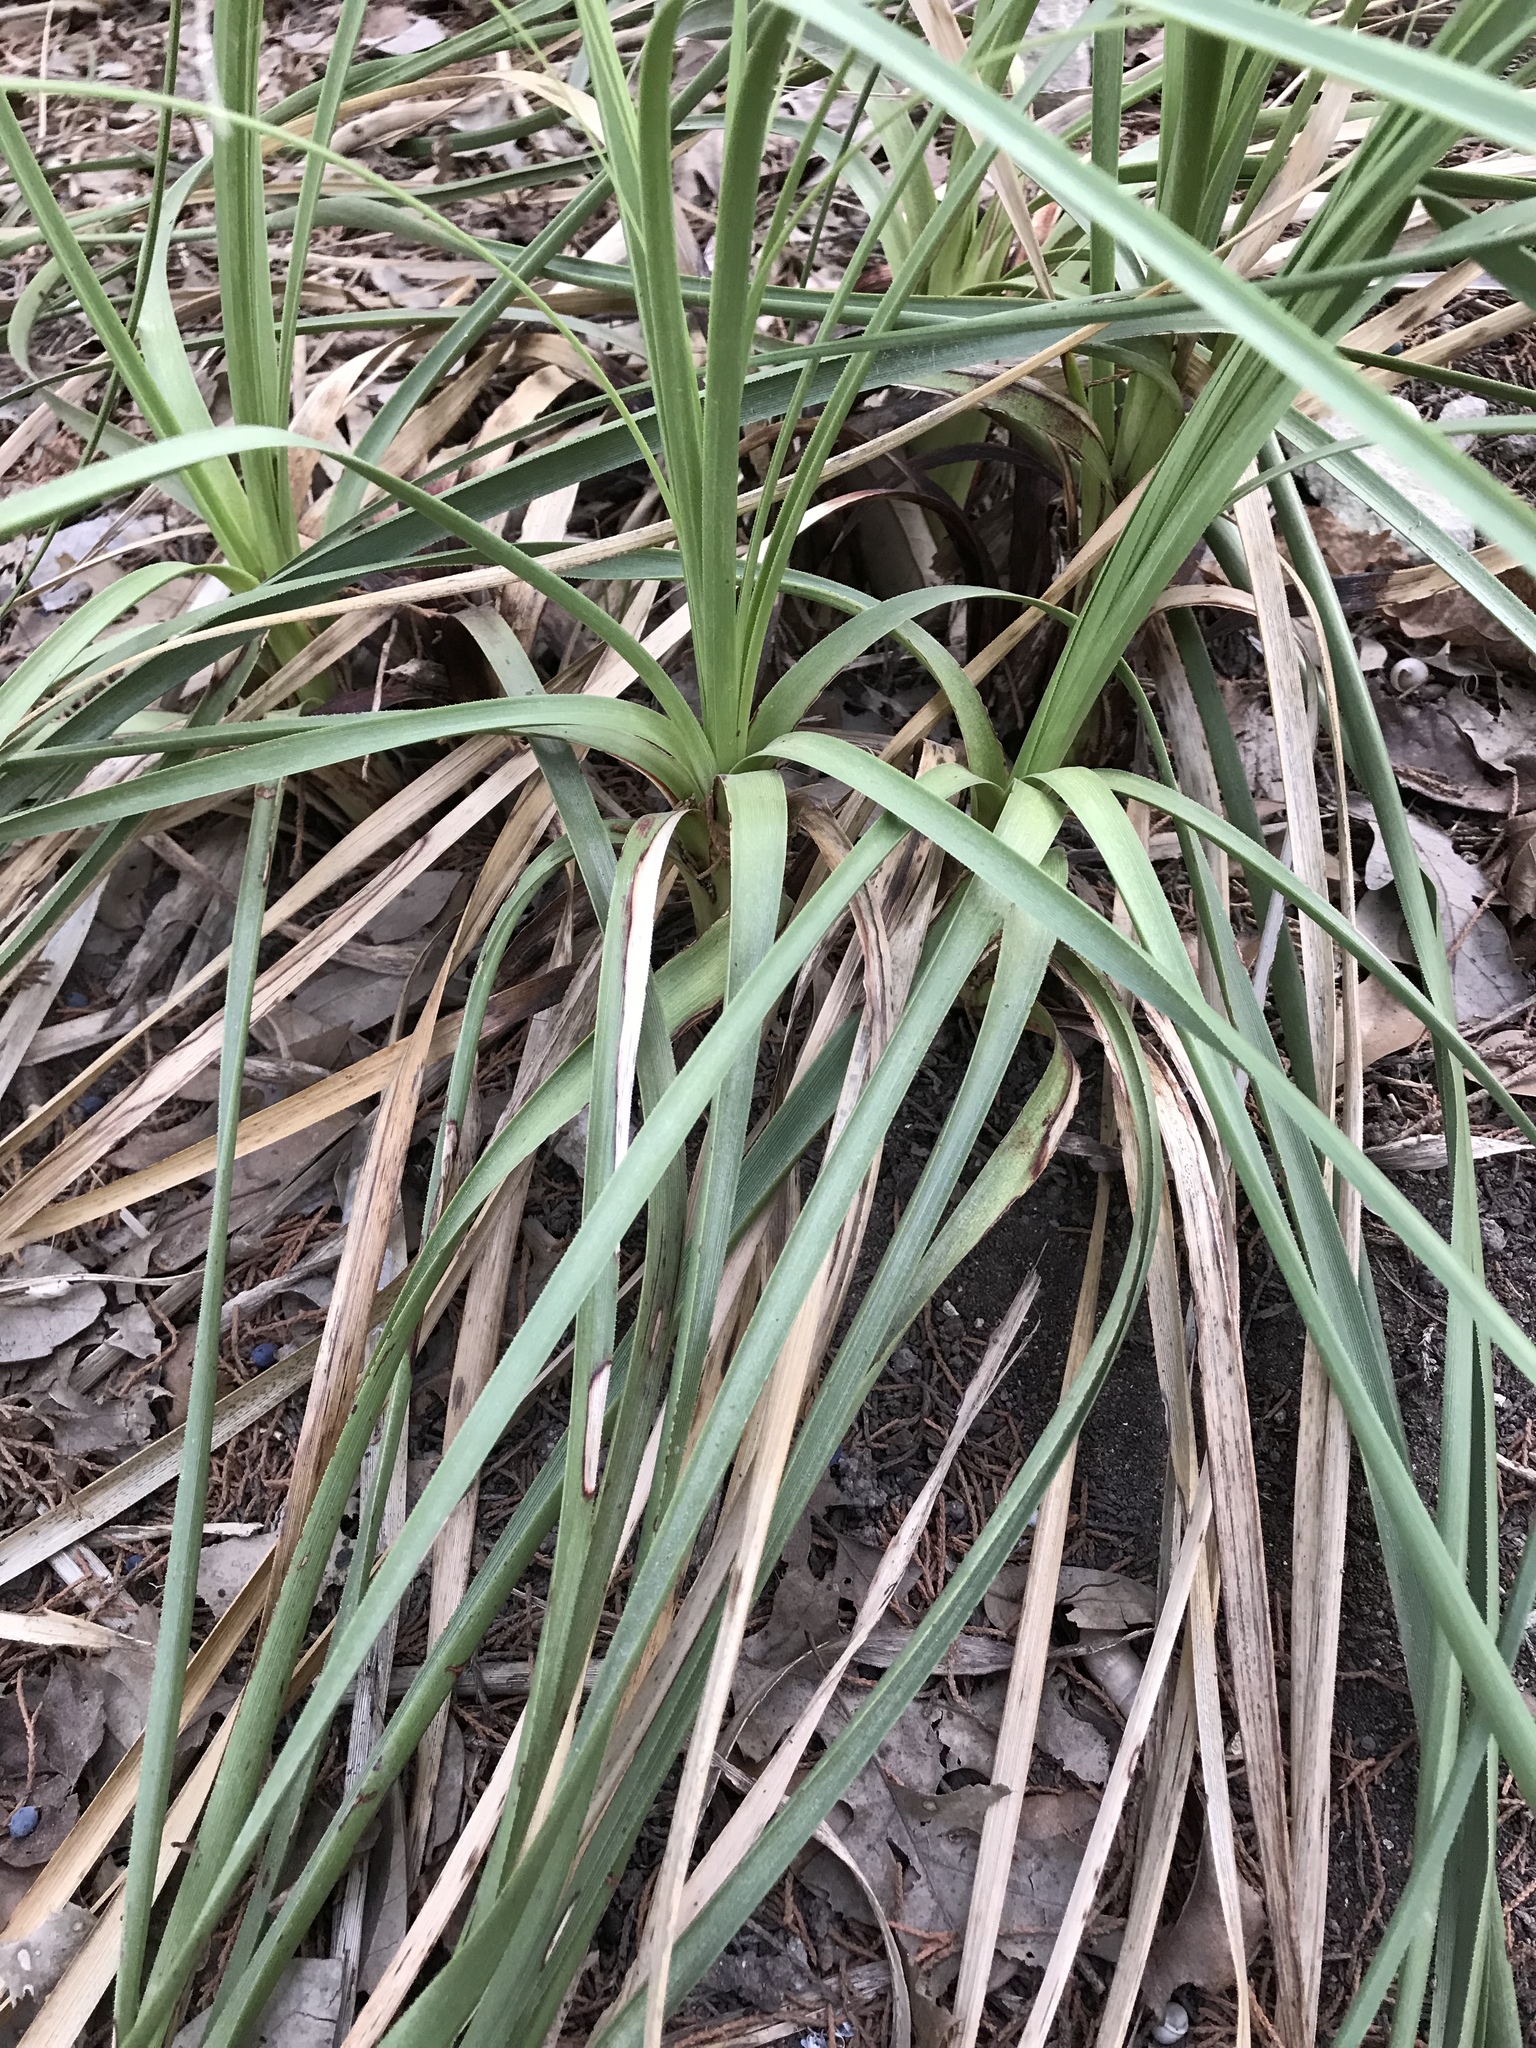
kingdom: Plantae
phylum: Tracheophyta
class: Liliopsida
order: Asparagales
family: Asparagaceae
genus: Nolina
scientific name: Nolina lindheimeriana
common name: Lindheimer's bear-grass
